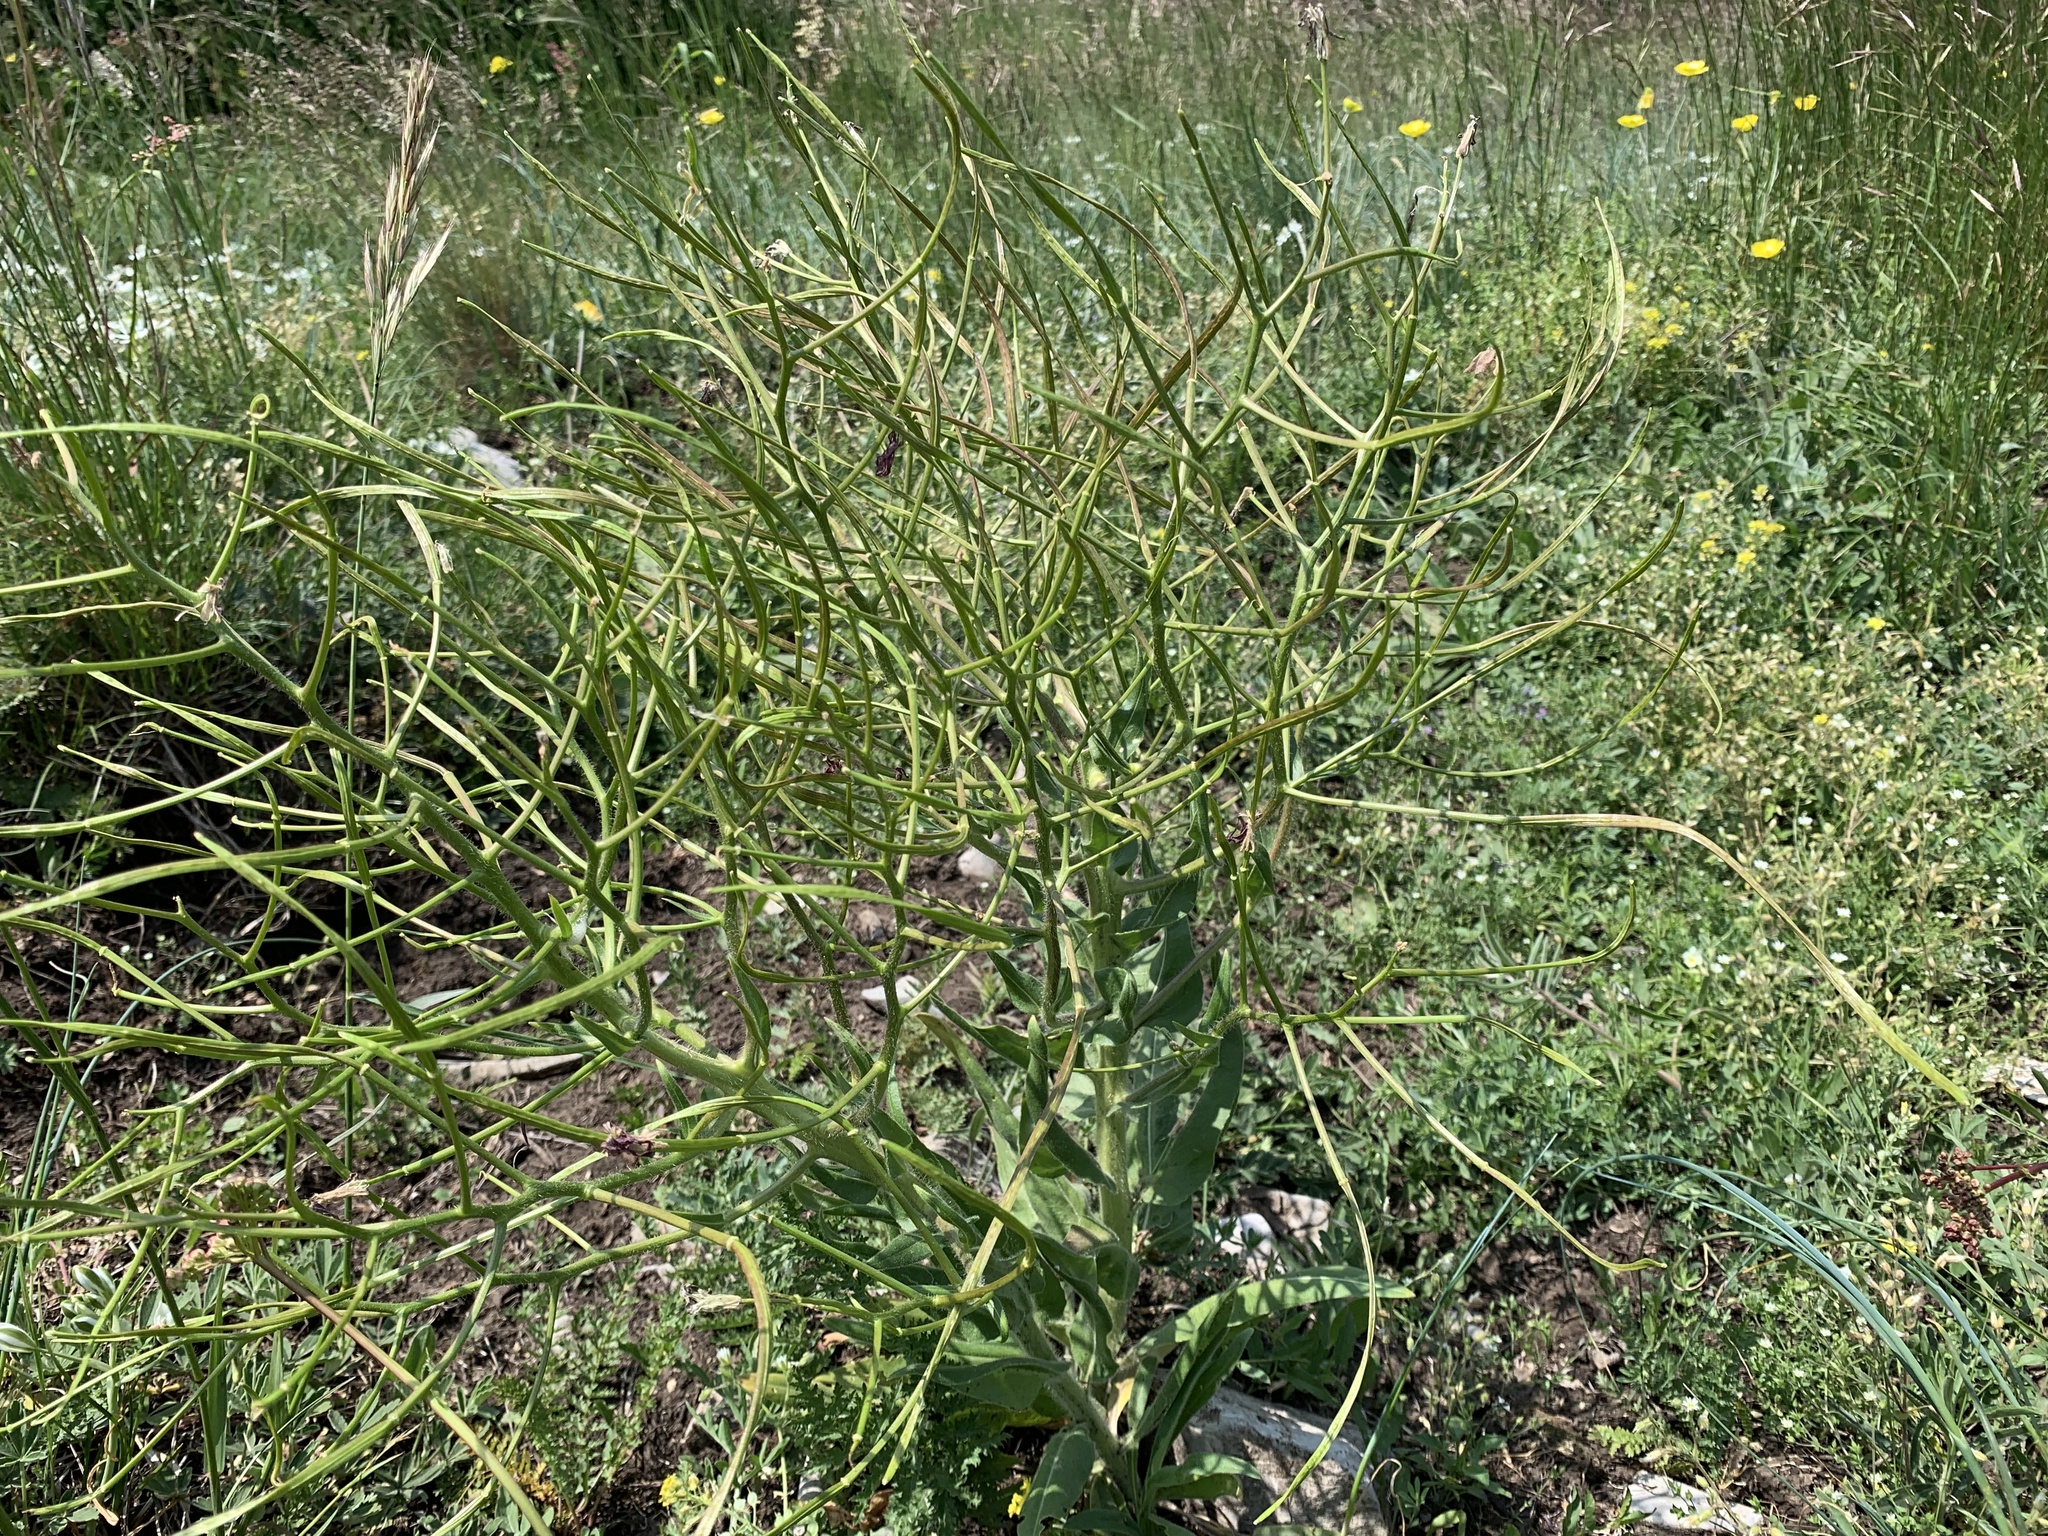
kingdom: Plantae
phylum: Tracheophyta
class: Magnoliopsida
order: Brassicales
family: Brassicaceae
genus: Hesperis
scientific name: Hesperis tristis
